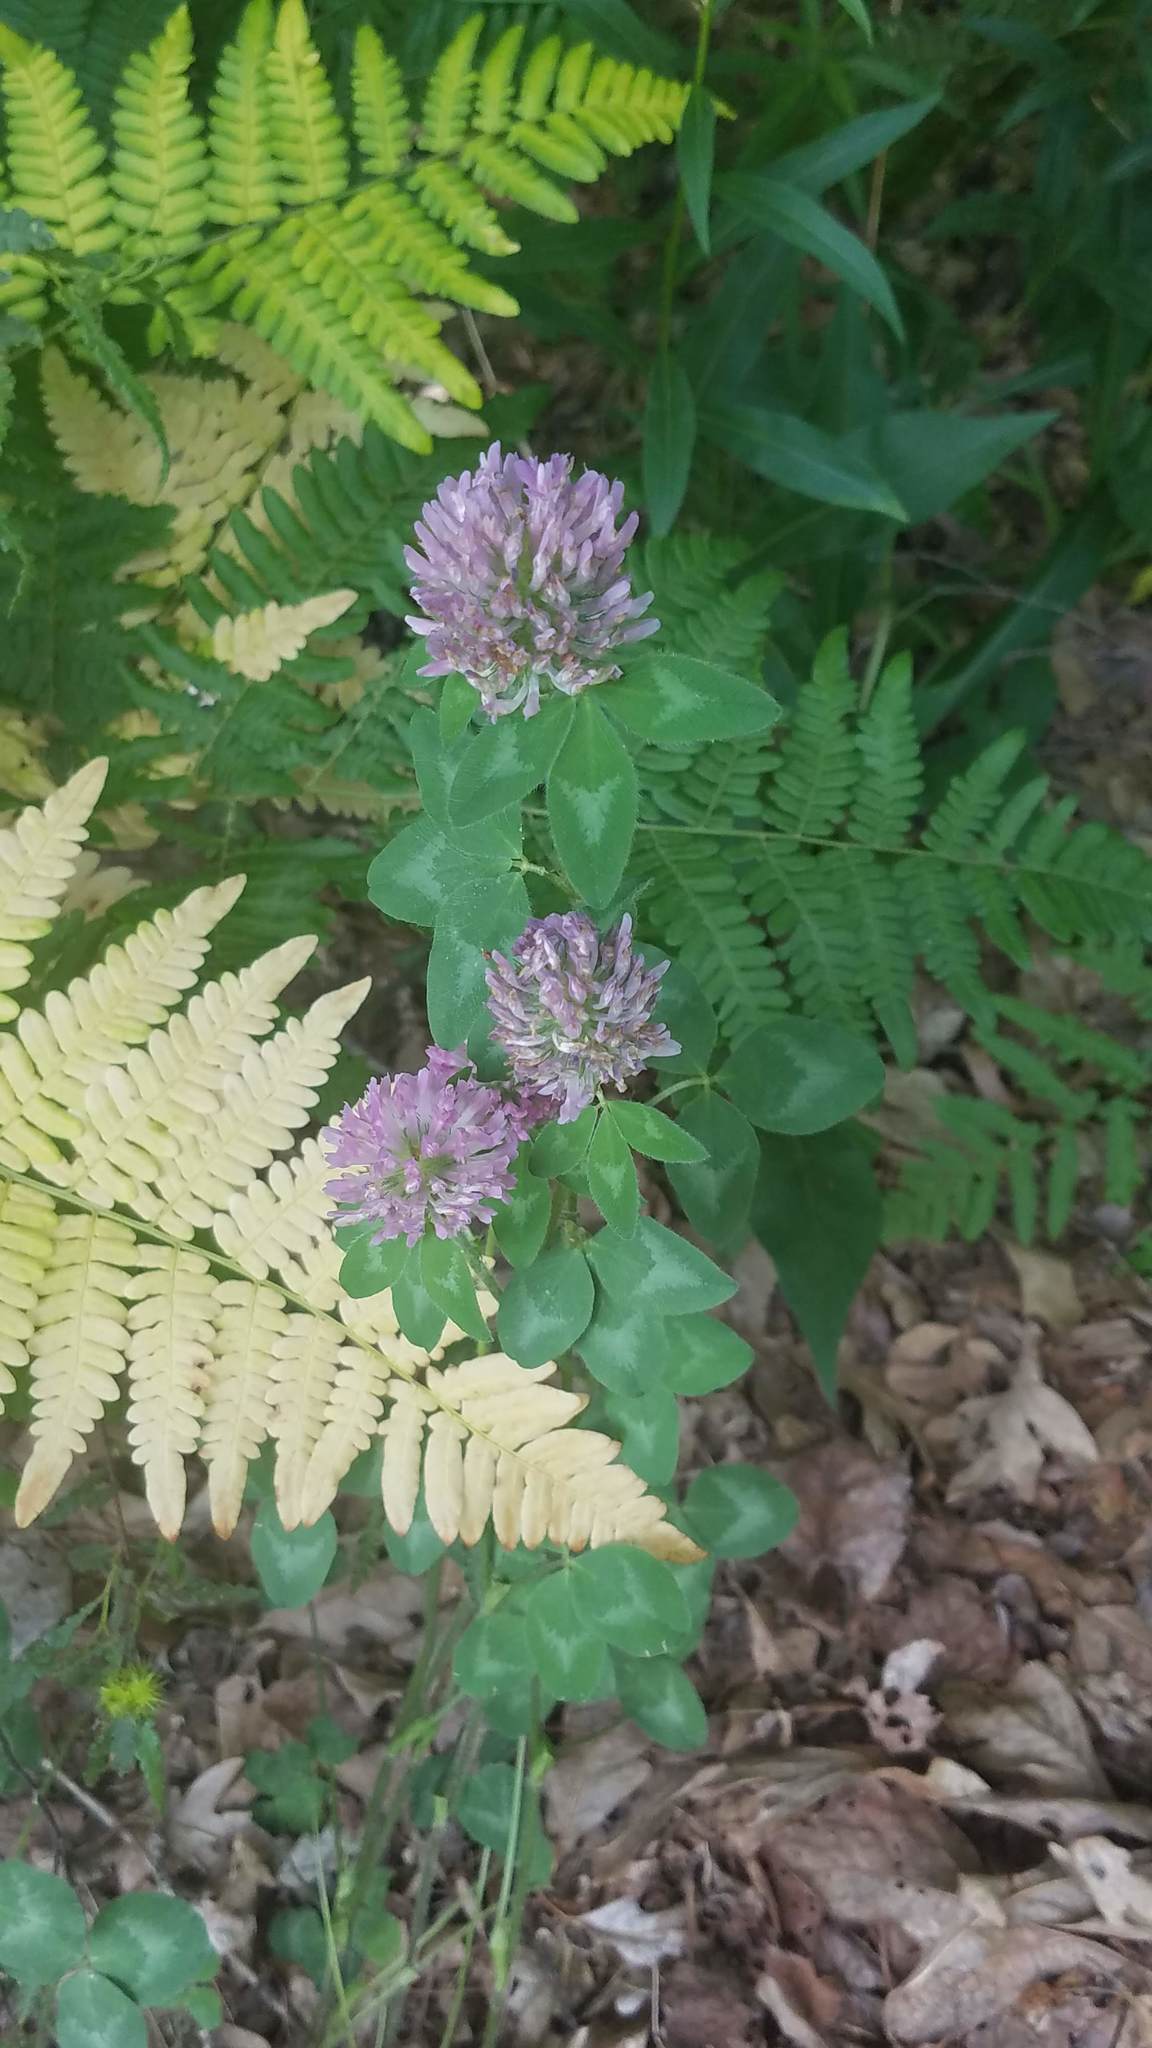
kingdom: Plantae
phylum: Tracheophyta
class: Magnoliopsida
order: Fabales
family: Fabaceae
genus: Trifolium
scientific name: Trifolium pratense
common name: Red clover
